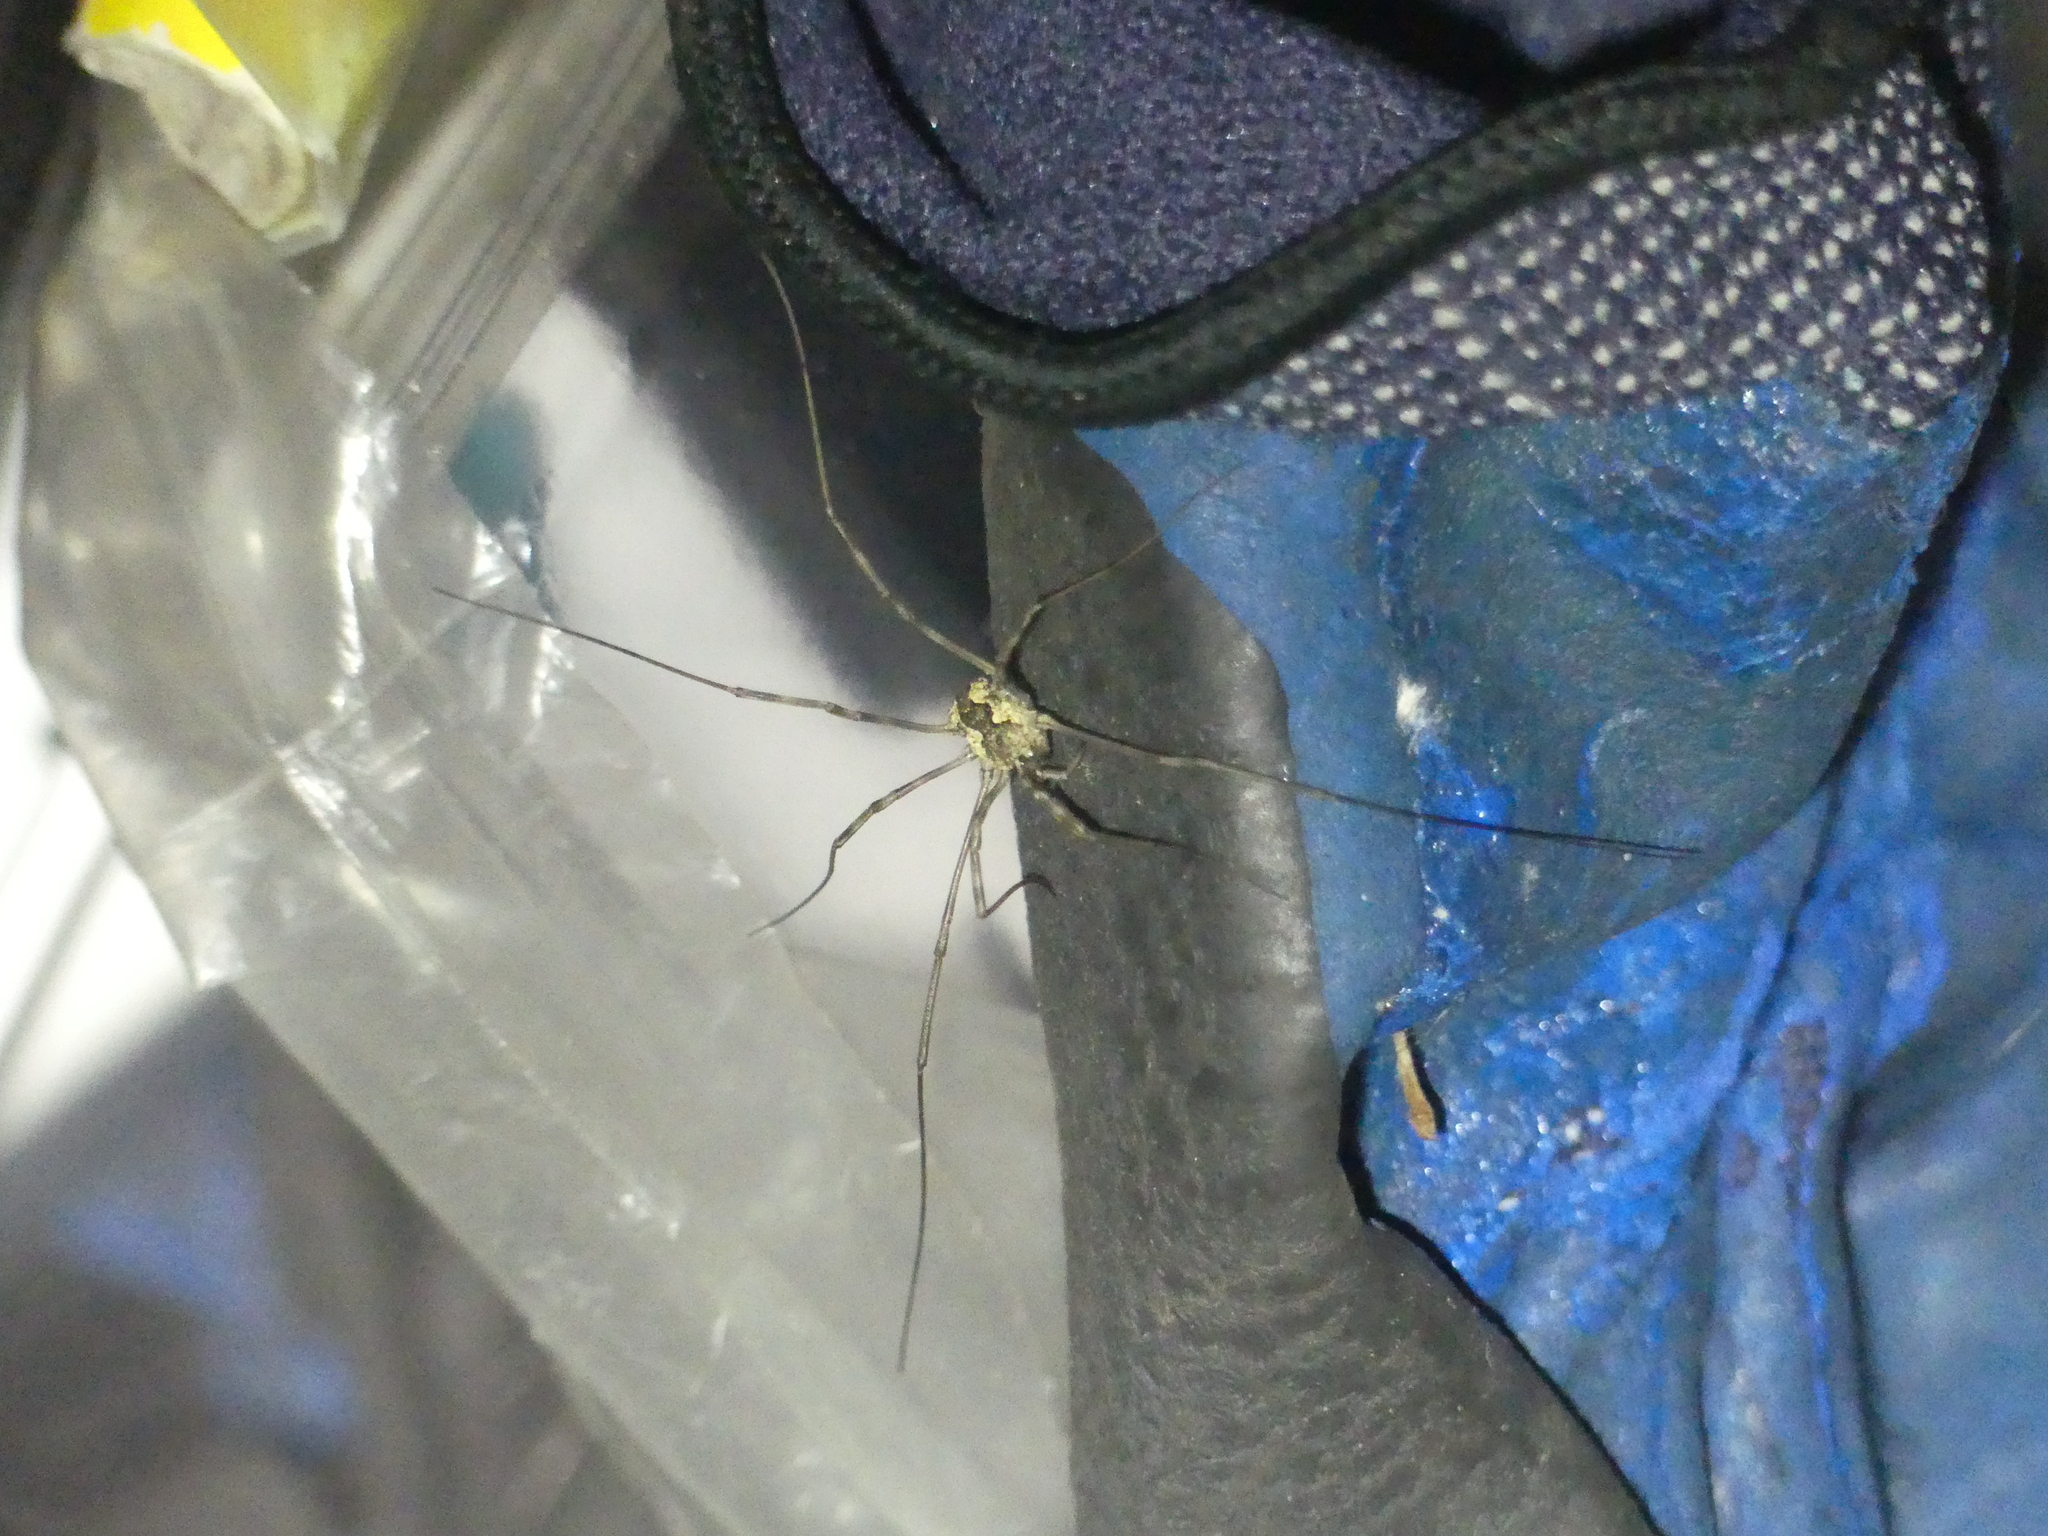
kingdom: Animalia
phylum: Arthropoda
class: Arachnida
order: Opiliones
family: Phalangiidae
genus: Mitopus
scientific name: Mitopus morio
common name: Saddleback harvestman
